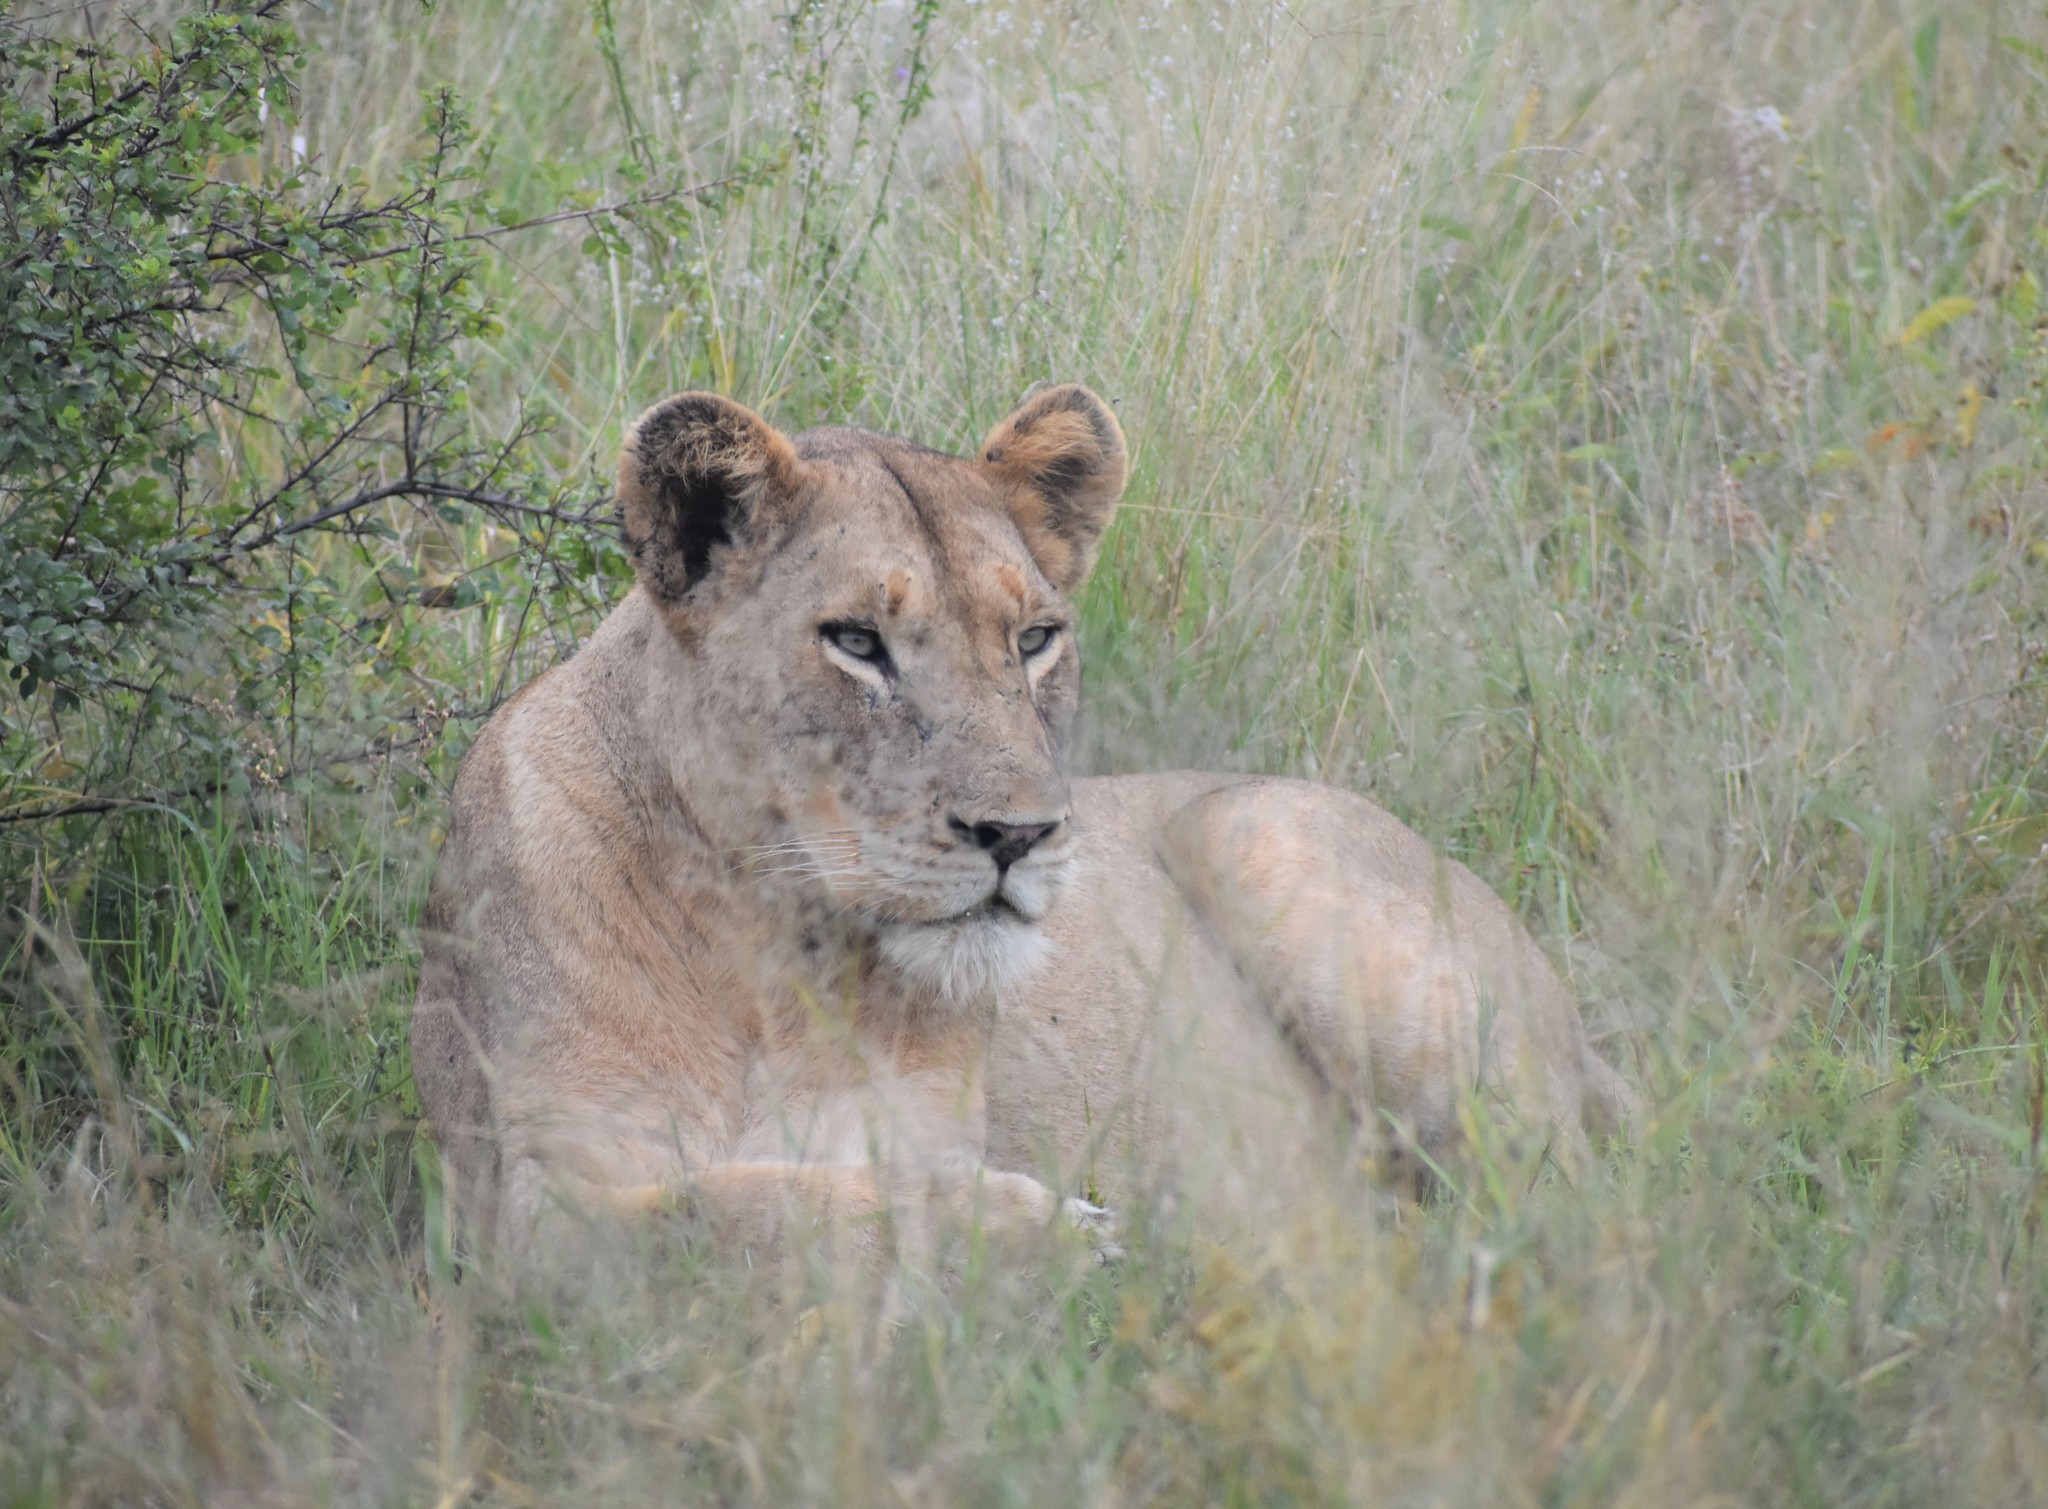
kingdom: Animalia
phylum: Chordata
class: Mammalia
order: Carnivora
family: Felidae
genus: Panthera
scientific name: Panthera leo
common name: Lion
